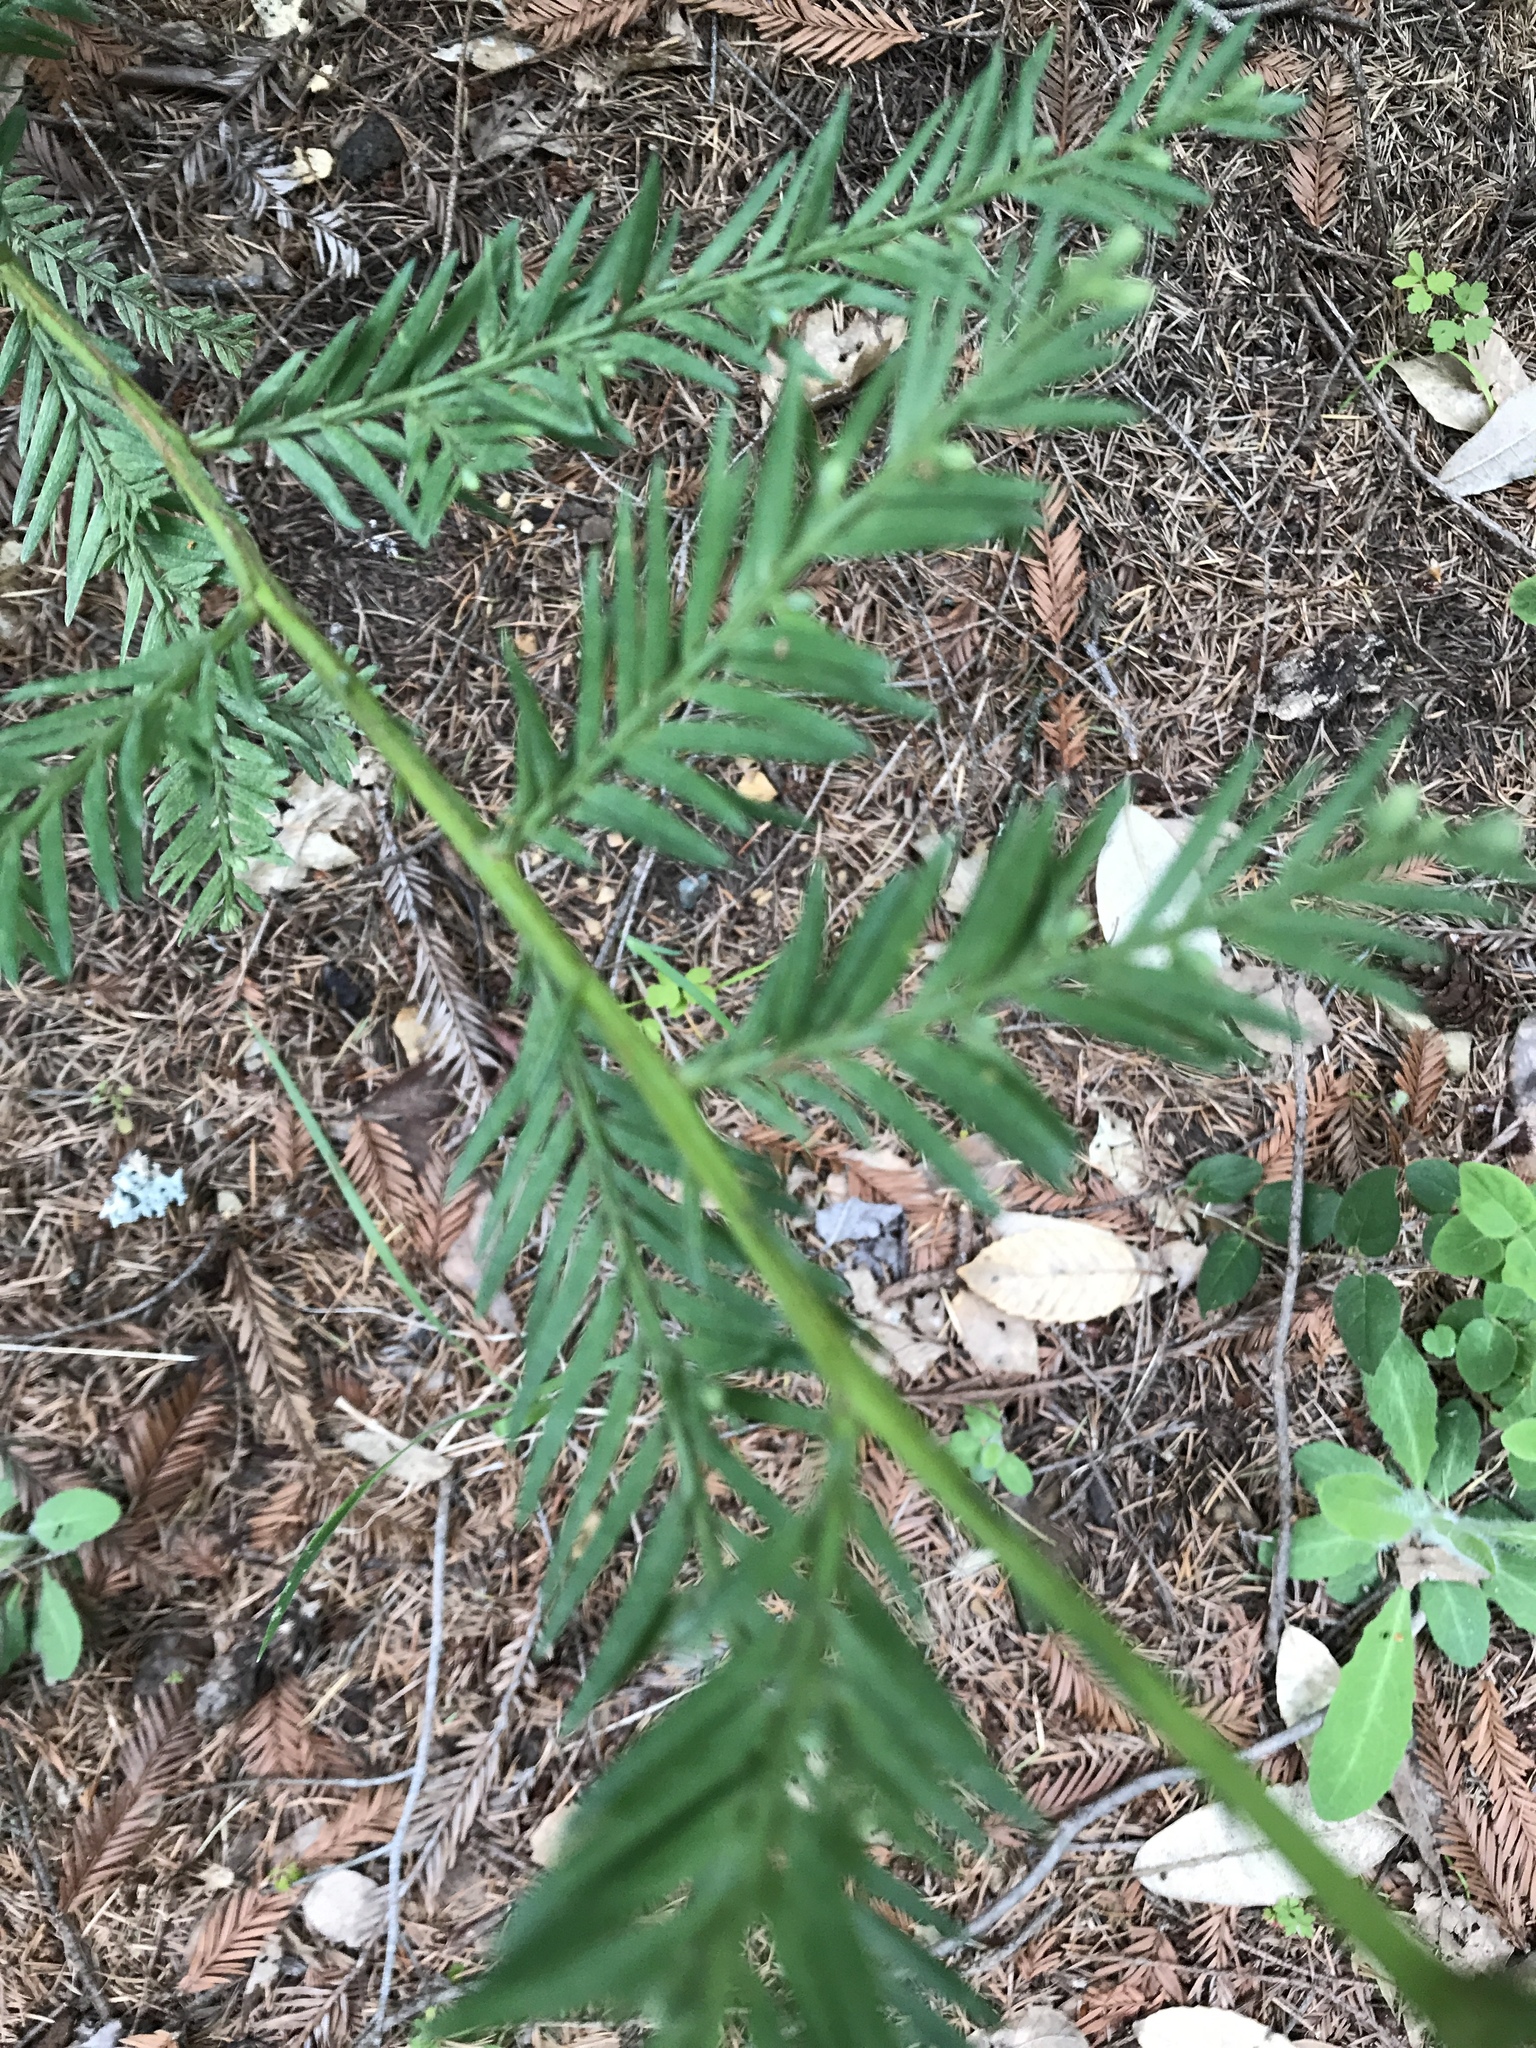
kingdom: Plantae
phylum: Tracheophyta
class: Pinopsida
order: Pinales
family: Cupressaceae
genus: Sequoia
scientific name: Sequoia sempervirens
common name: Coast redwood
